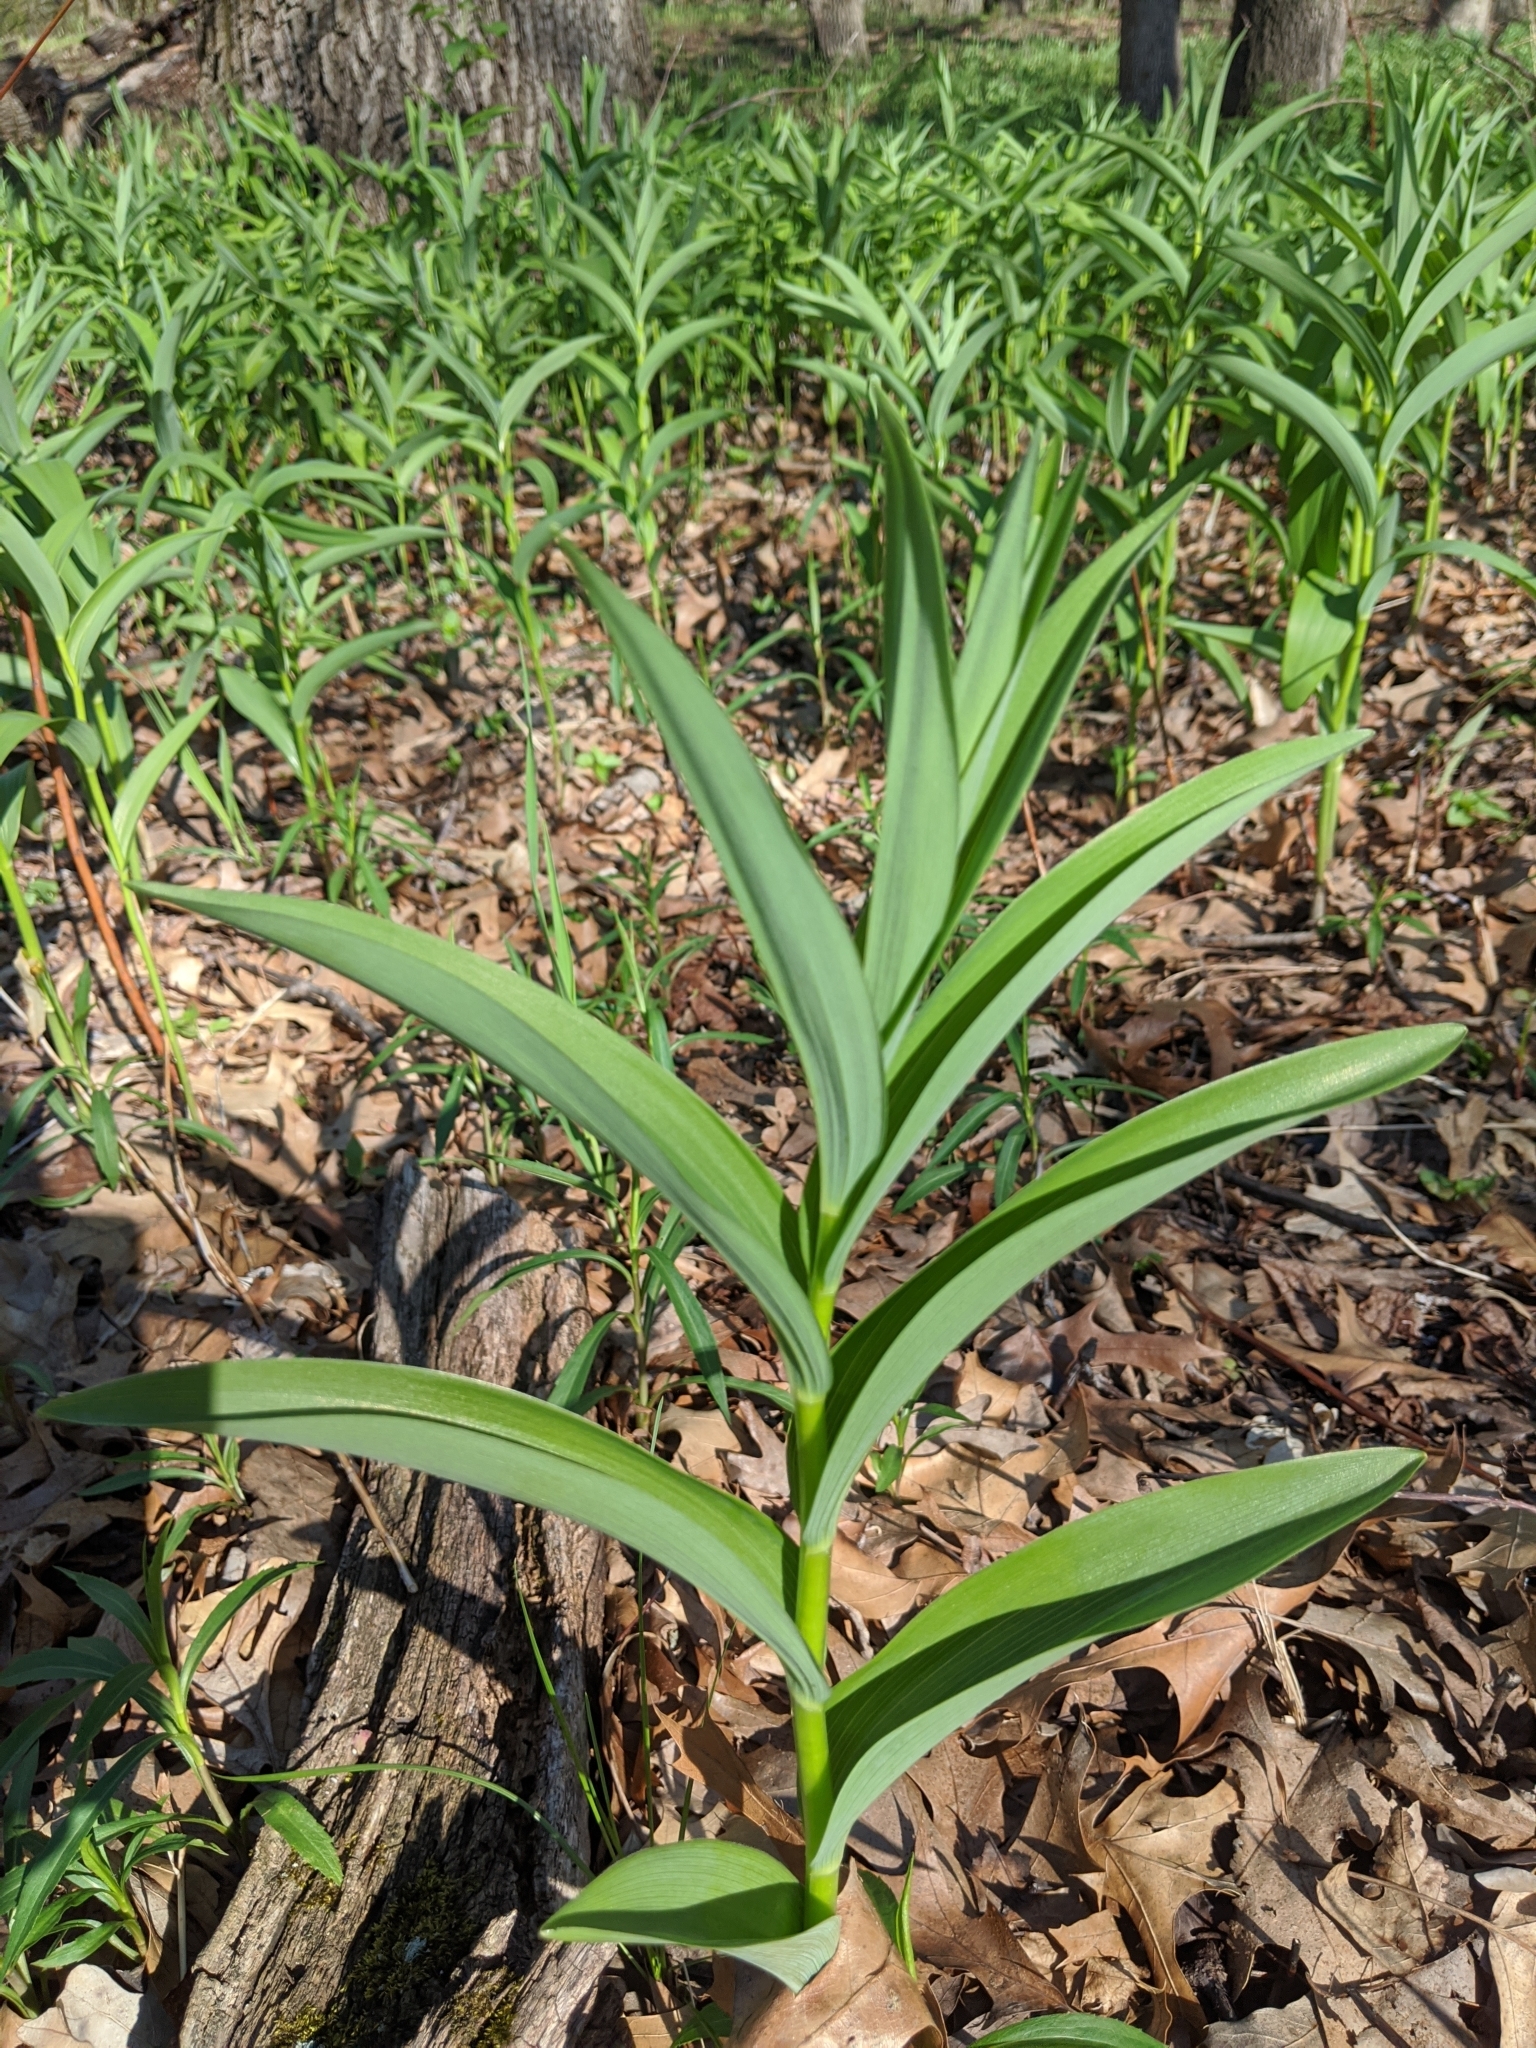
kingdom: Plantae
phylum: Tracheophyta
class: Liliopsida
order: Asparagales
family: Asparagaceae
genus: Maianthemum
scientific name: Maianthemum stellatum
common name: Little false solomon's seal
